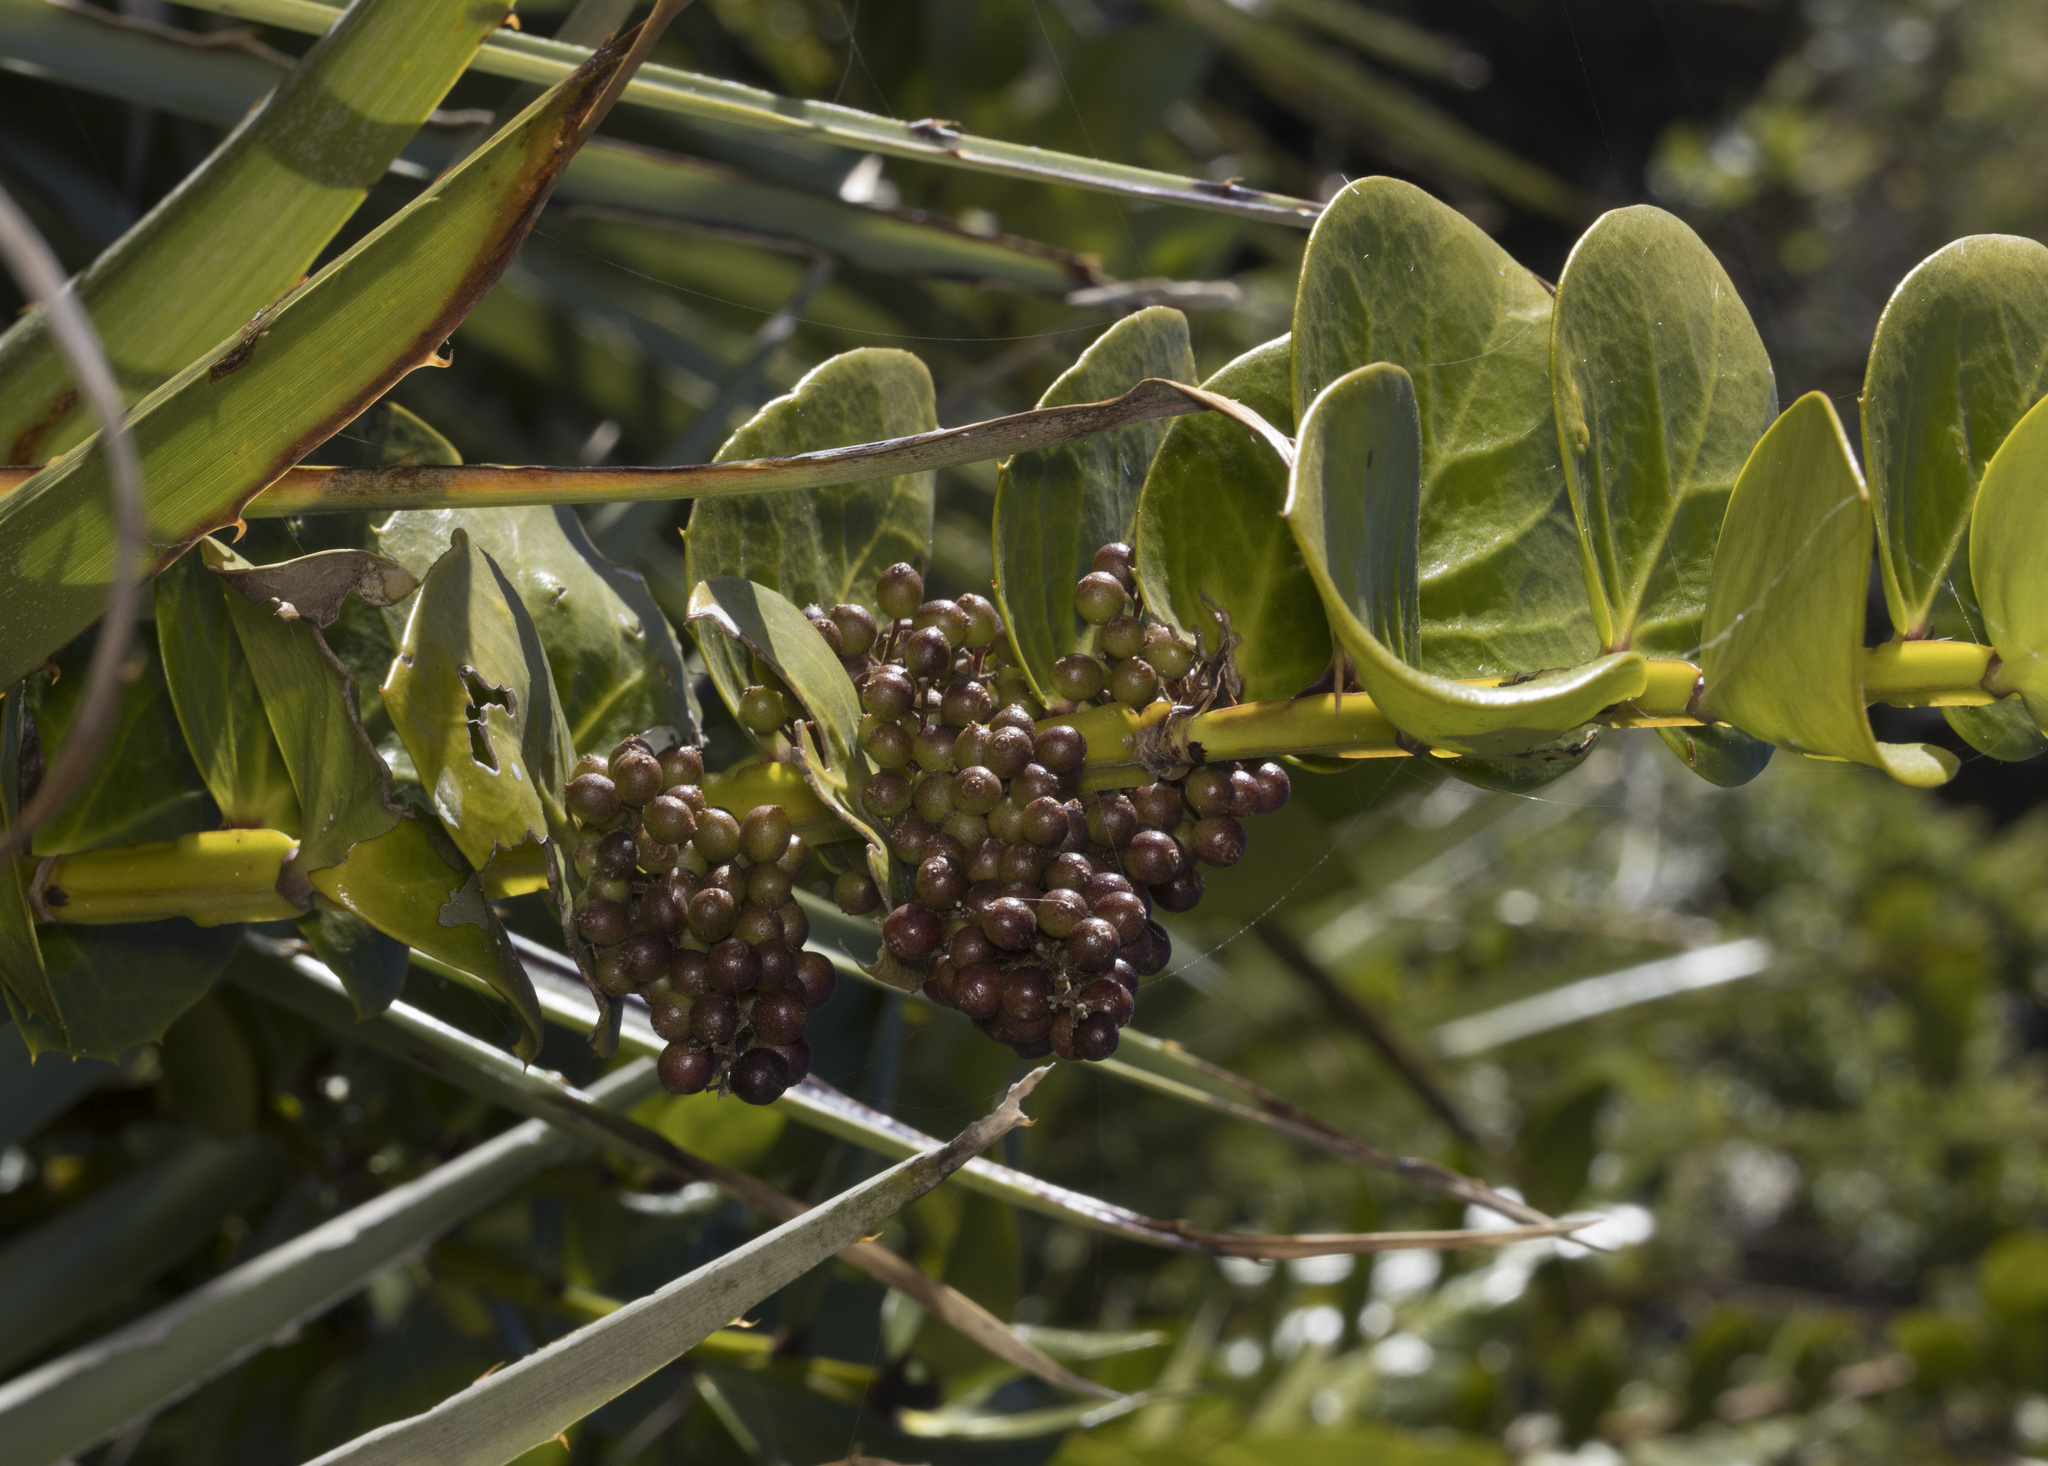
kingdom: Plantae
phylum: Tracheophyta
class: Magnoliopsida
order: Apiales
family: Griseliniaceae
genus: Griselinia
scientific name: Griselinia scandens
